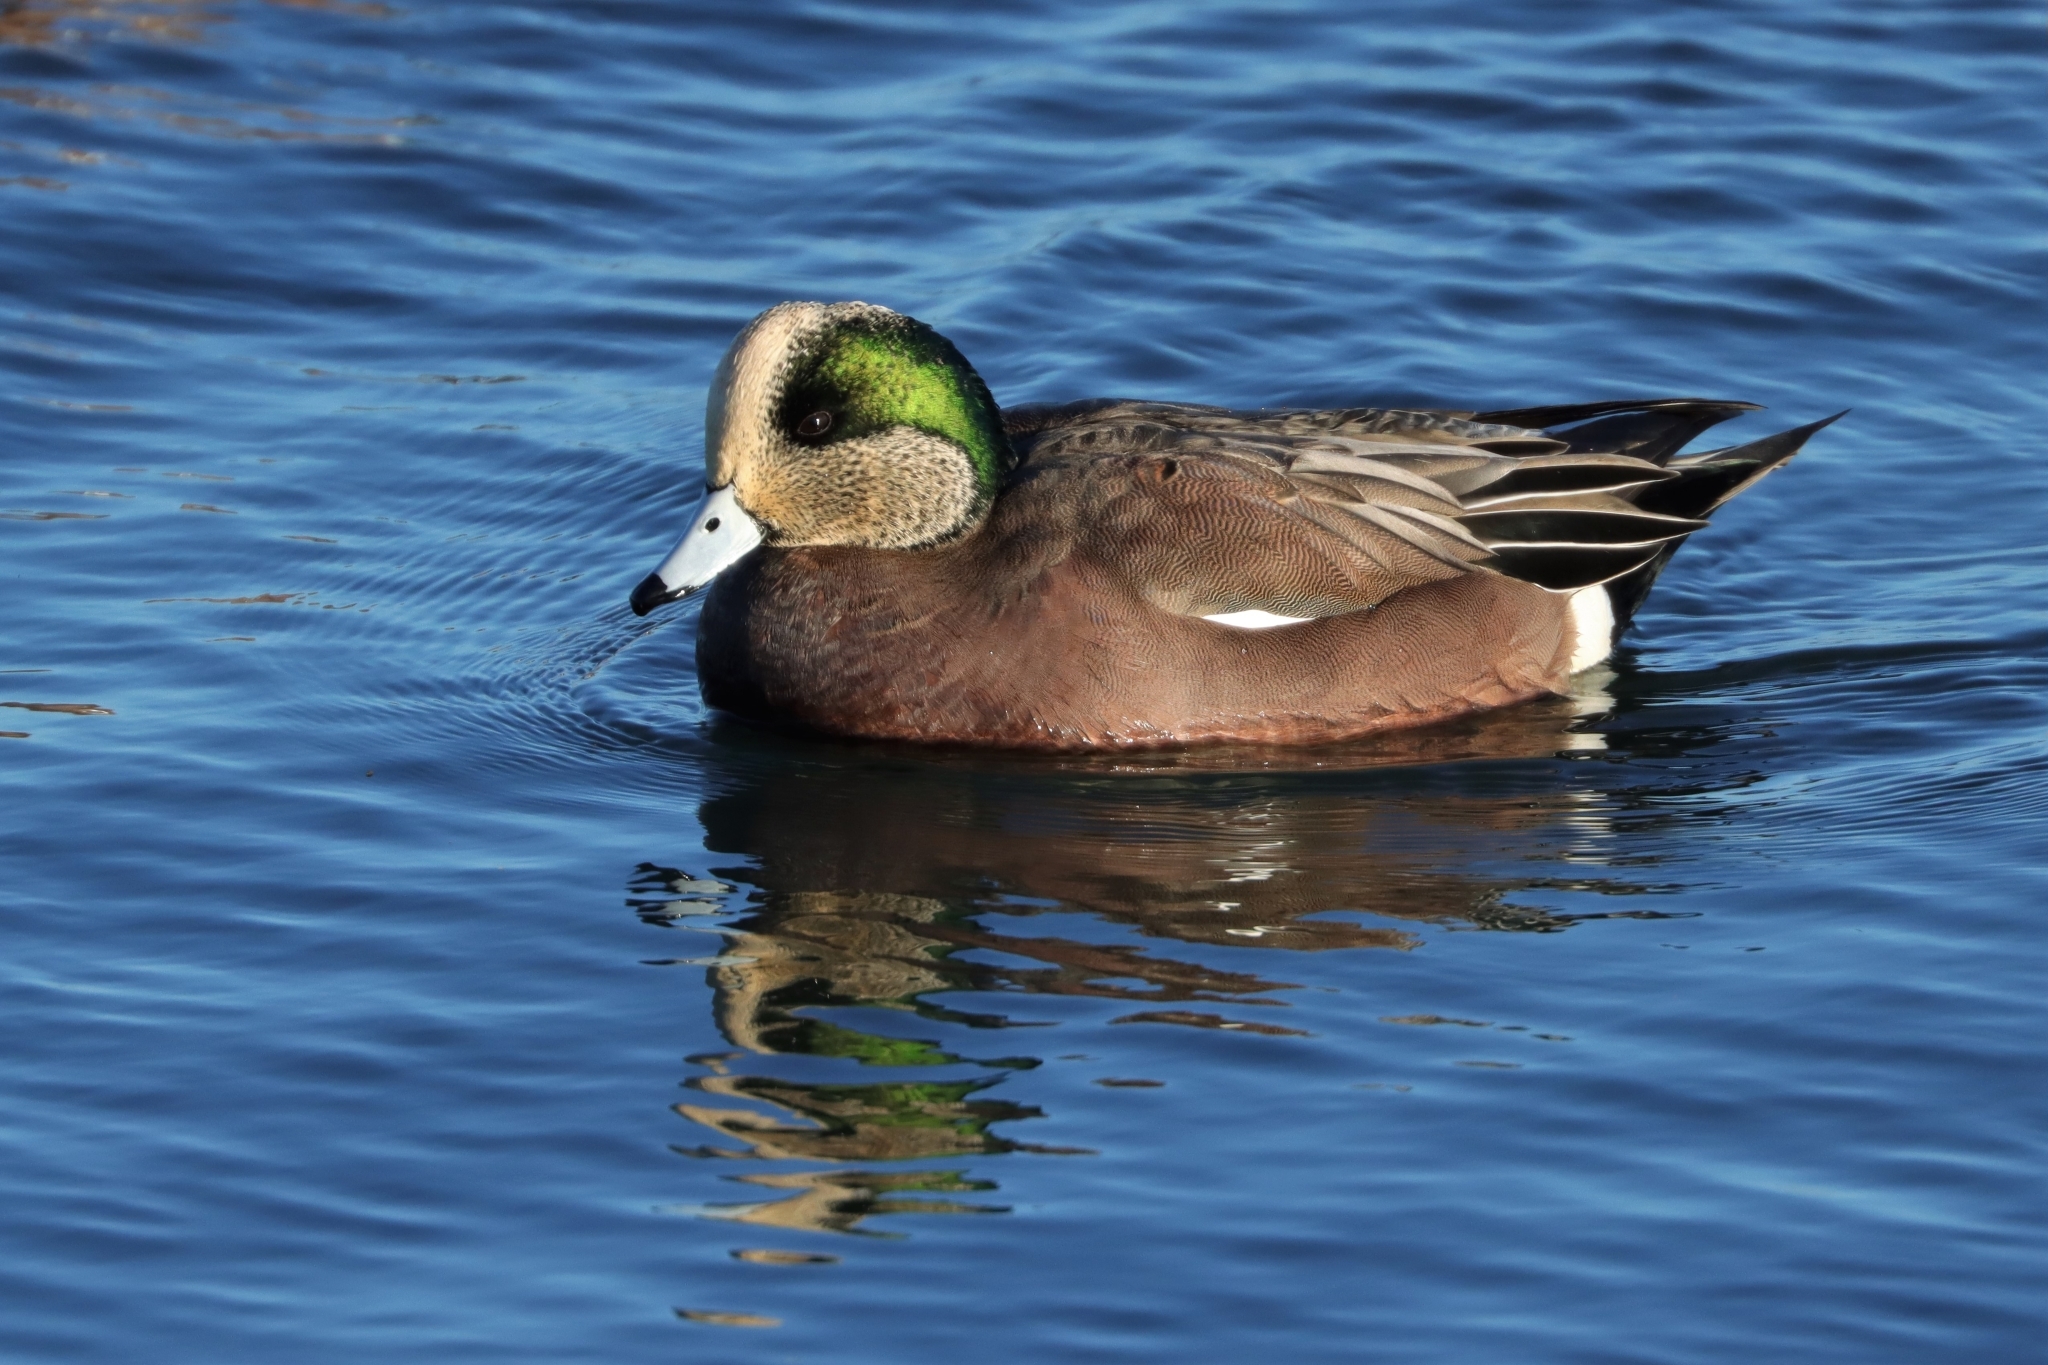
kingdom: Animalia
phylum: Chordata
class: Aves
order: Anseriformes
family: Anatidae
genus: Mareca
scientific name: Mareca americana
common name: American wigeon
